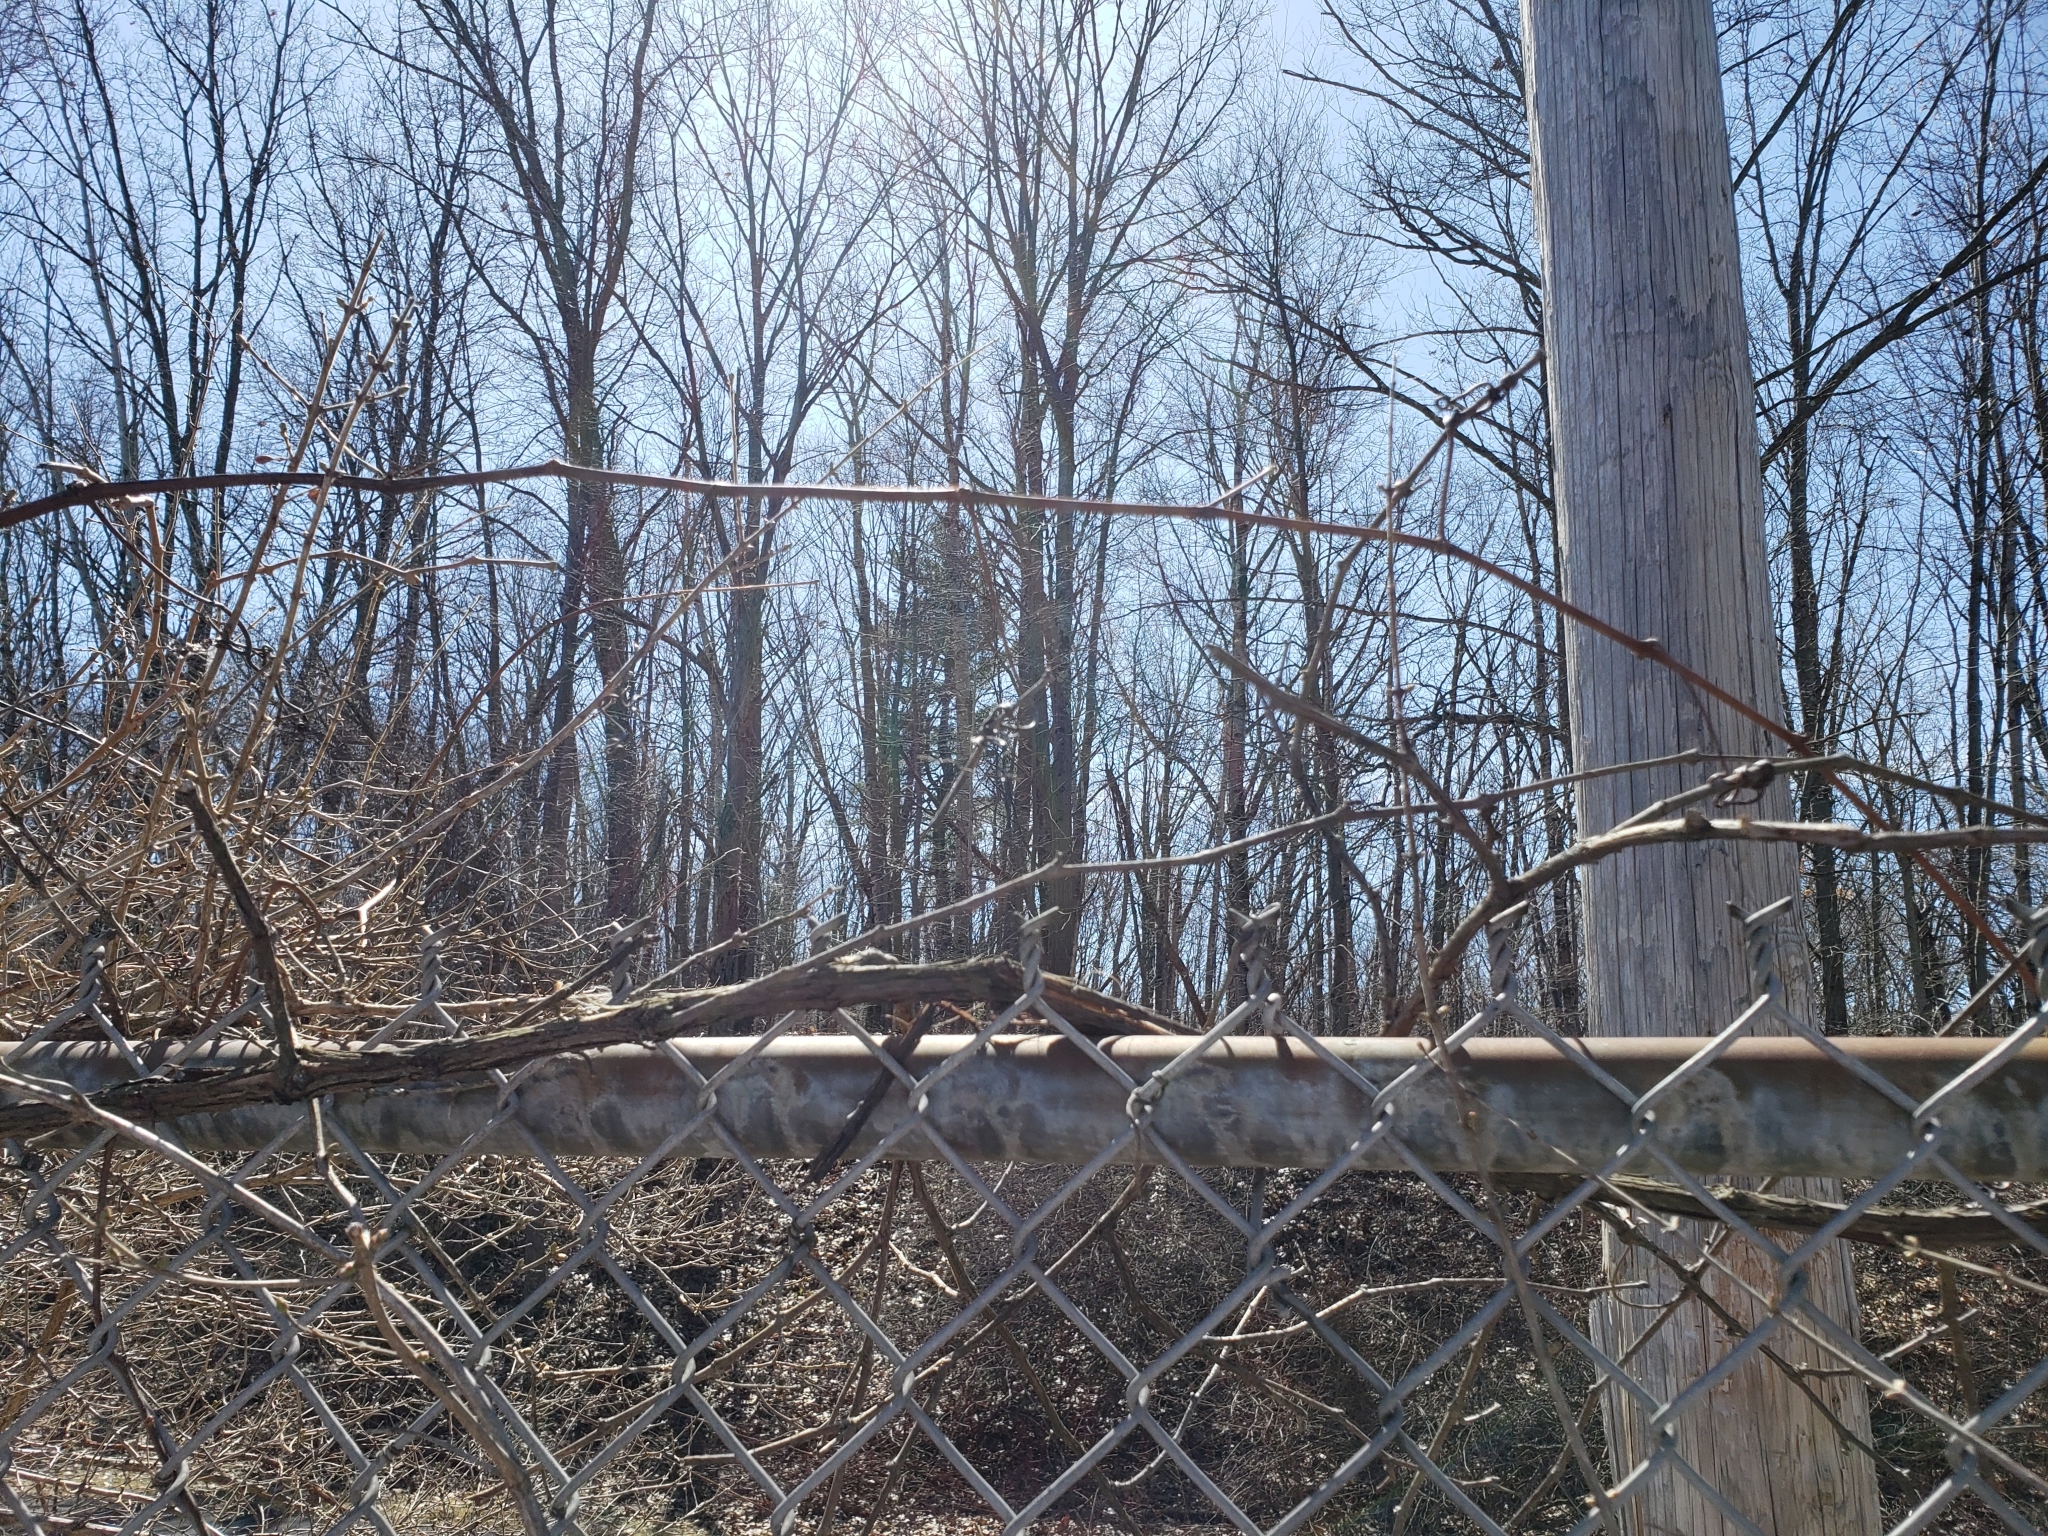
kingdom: Plantae
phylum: Tracheophyta
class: Magnoliopsida
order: Vitales
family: Vitaceae
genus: Vitis
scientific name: Vitis labrusca
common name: Concord grape
